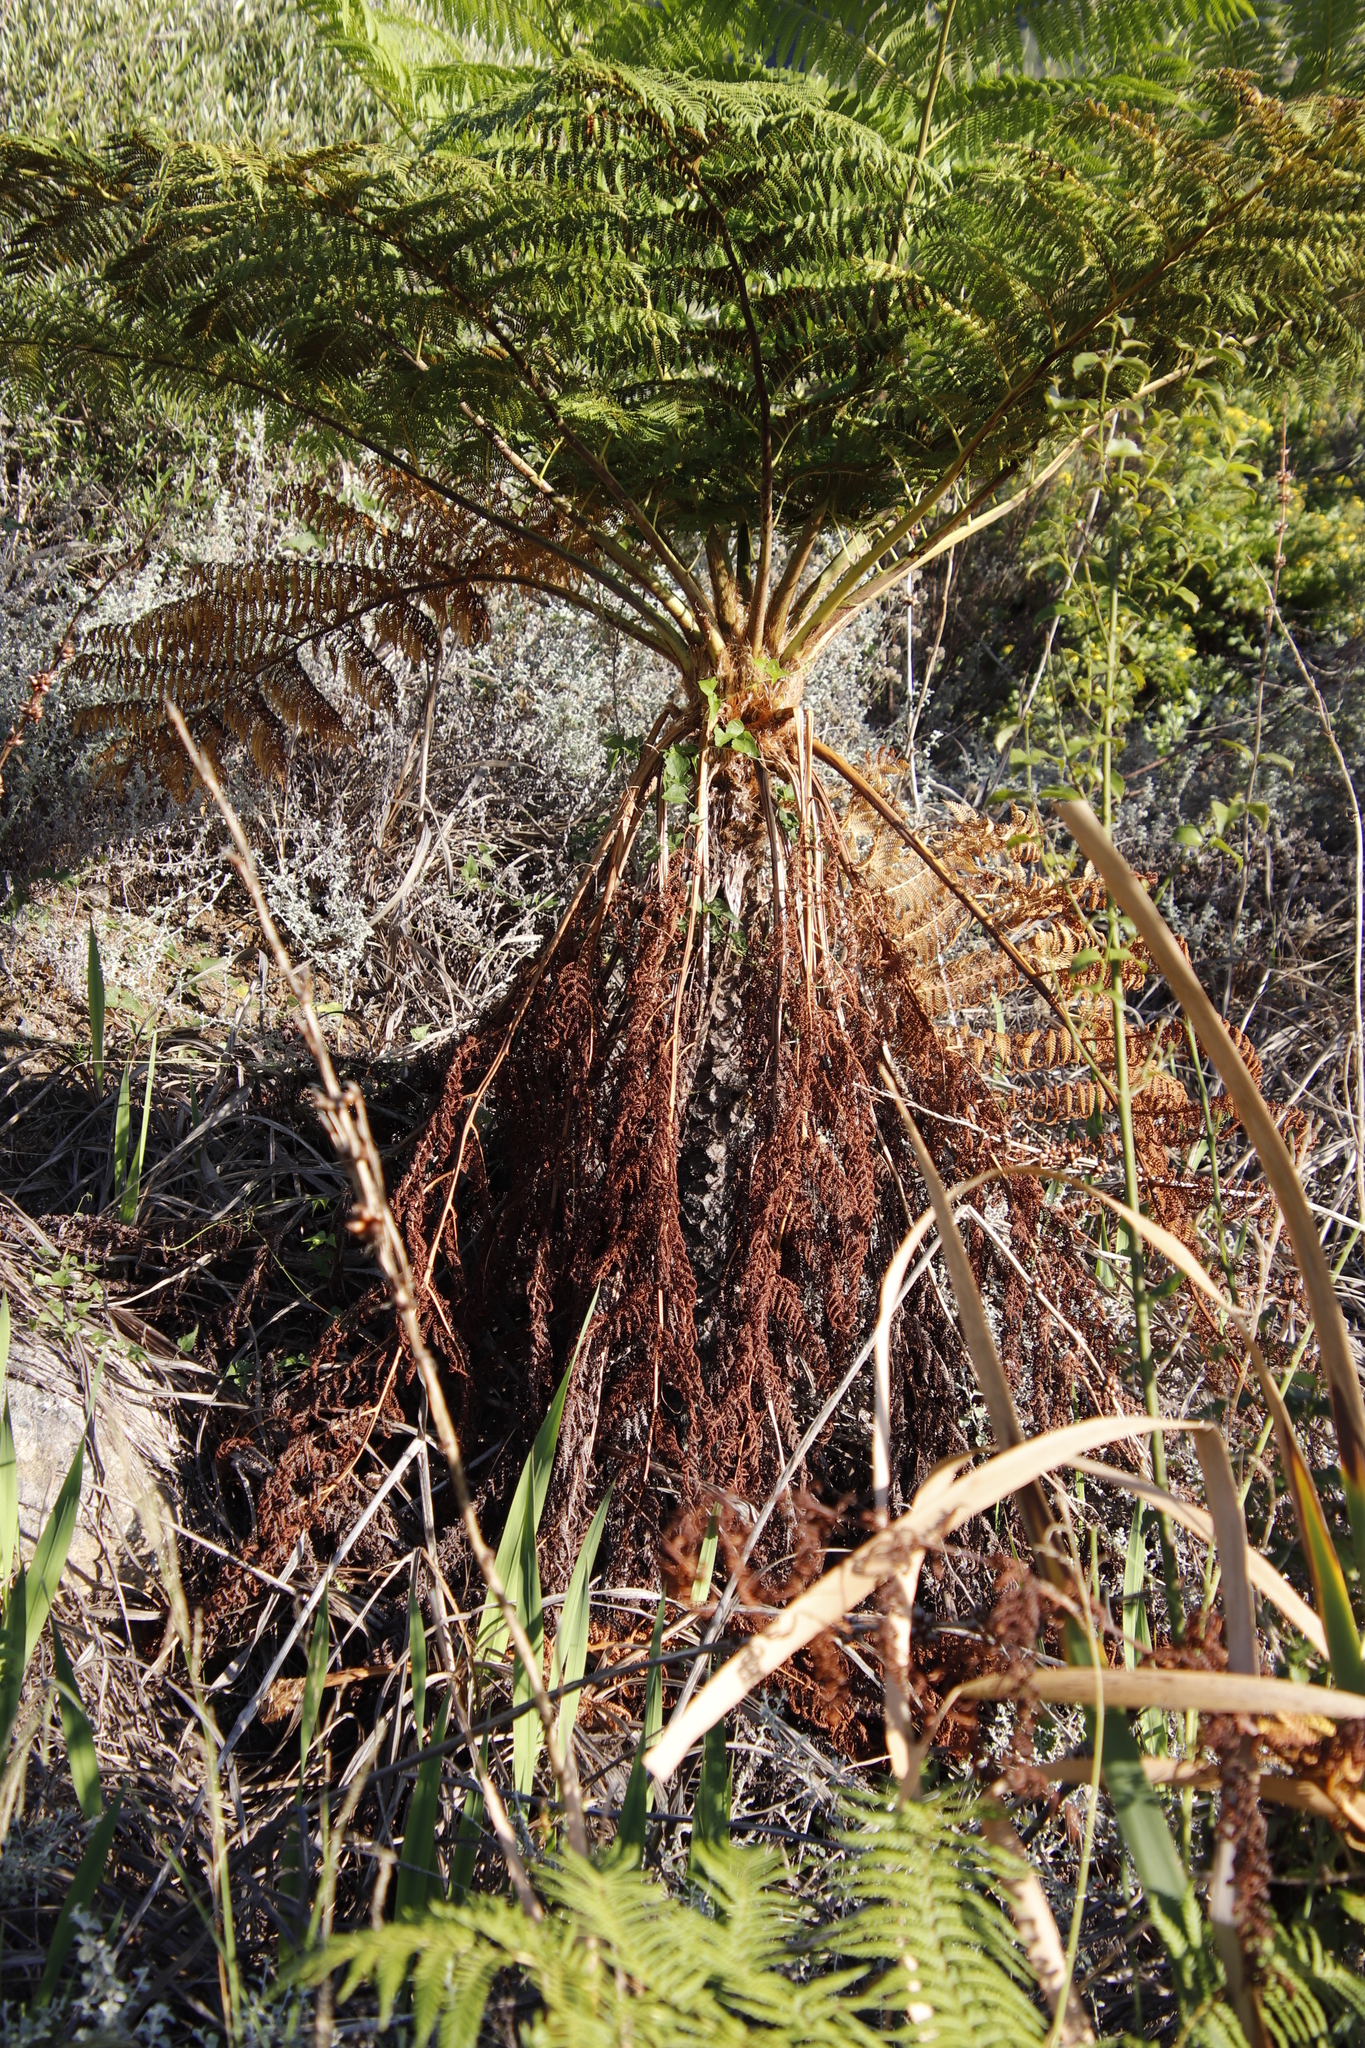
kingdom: Plantae
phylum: Tracheophyta
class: Polypodiopsida
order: Cyatheales
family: Cyatheaceae
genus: Sphaeropteris
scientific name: Sphaeropteris cooperi
